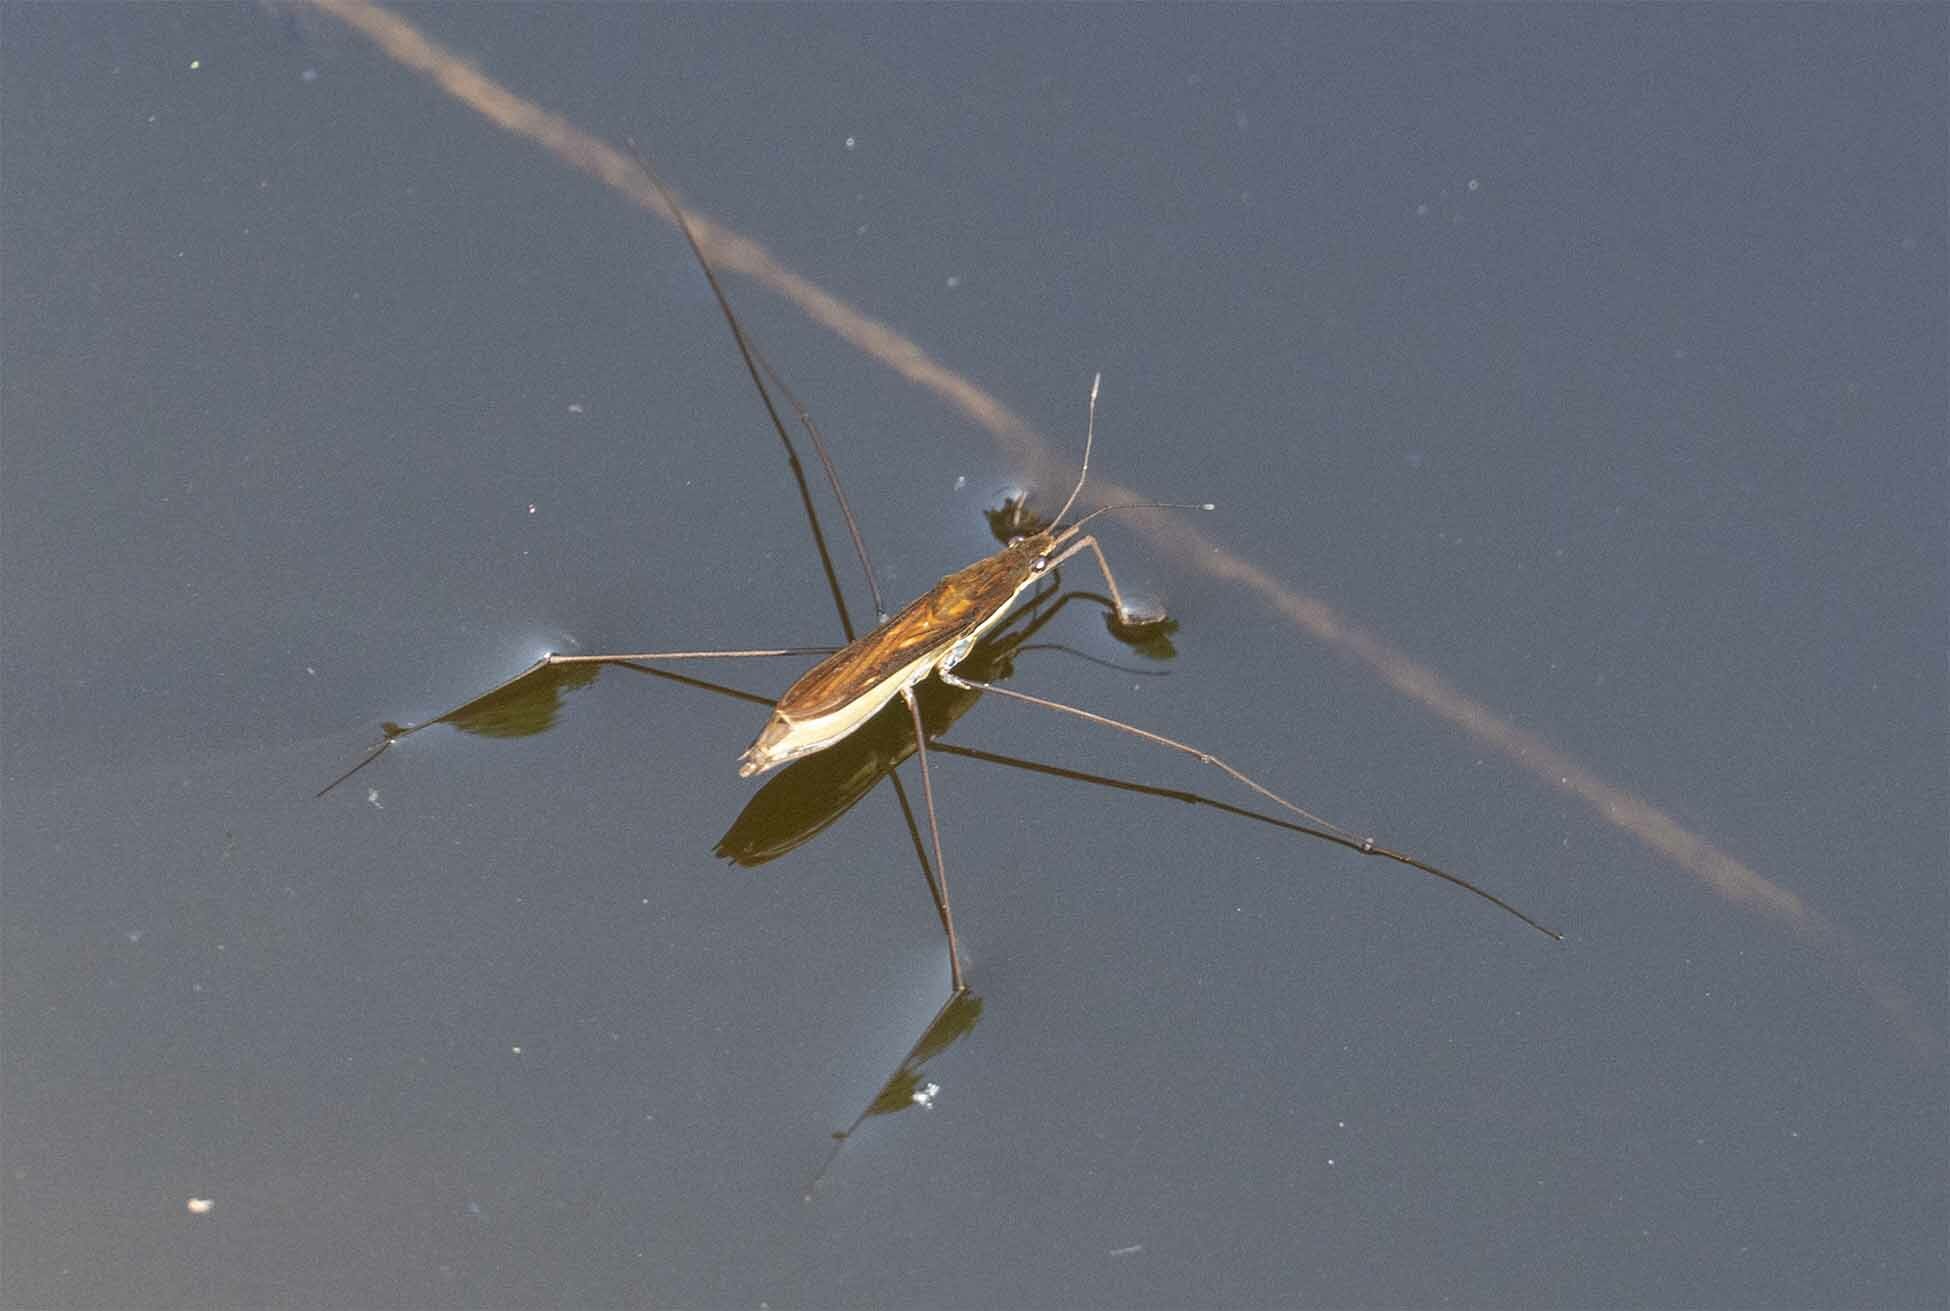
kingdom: Animalia
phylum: Arthropoda
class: Insecta
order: Hemiptera
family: Gerridae
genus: Limnoporus
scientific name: Limnoporus notabilis
